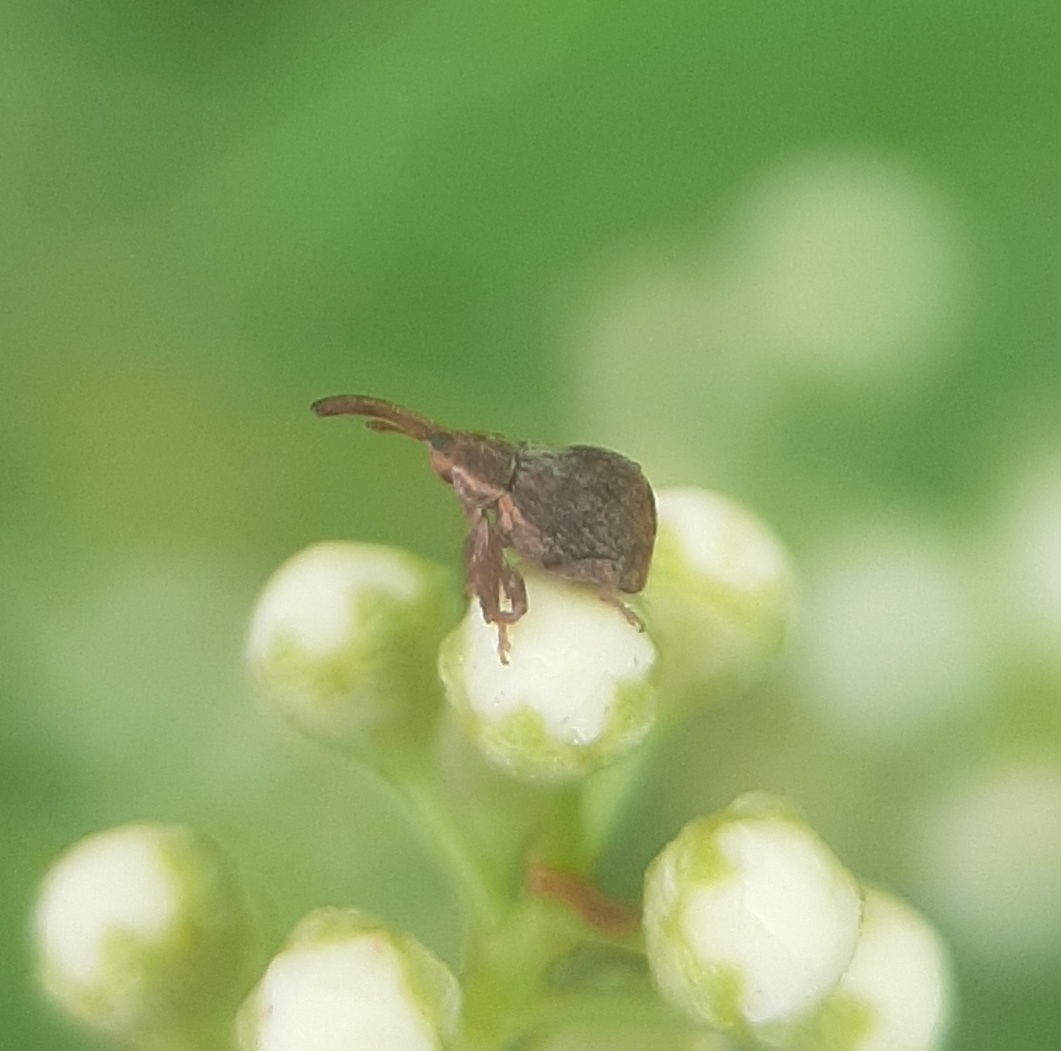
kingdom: Animalia
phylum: Arthropoda
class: Insecta
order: Coleoptera
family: Curculionidae
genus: Anthonomus
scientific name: Anthonomus quadrigibbus
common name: Apple curculio
